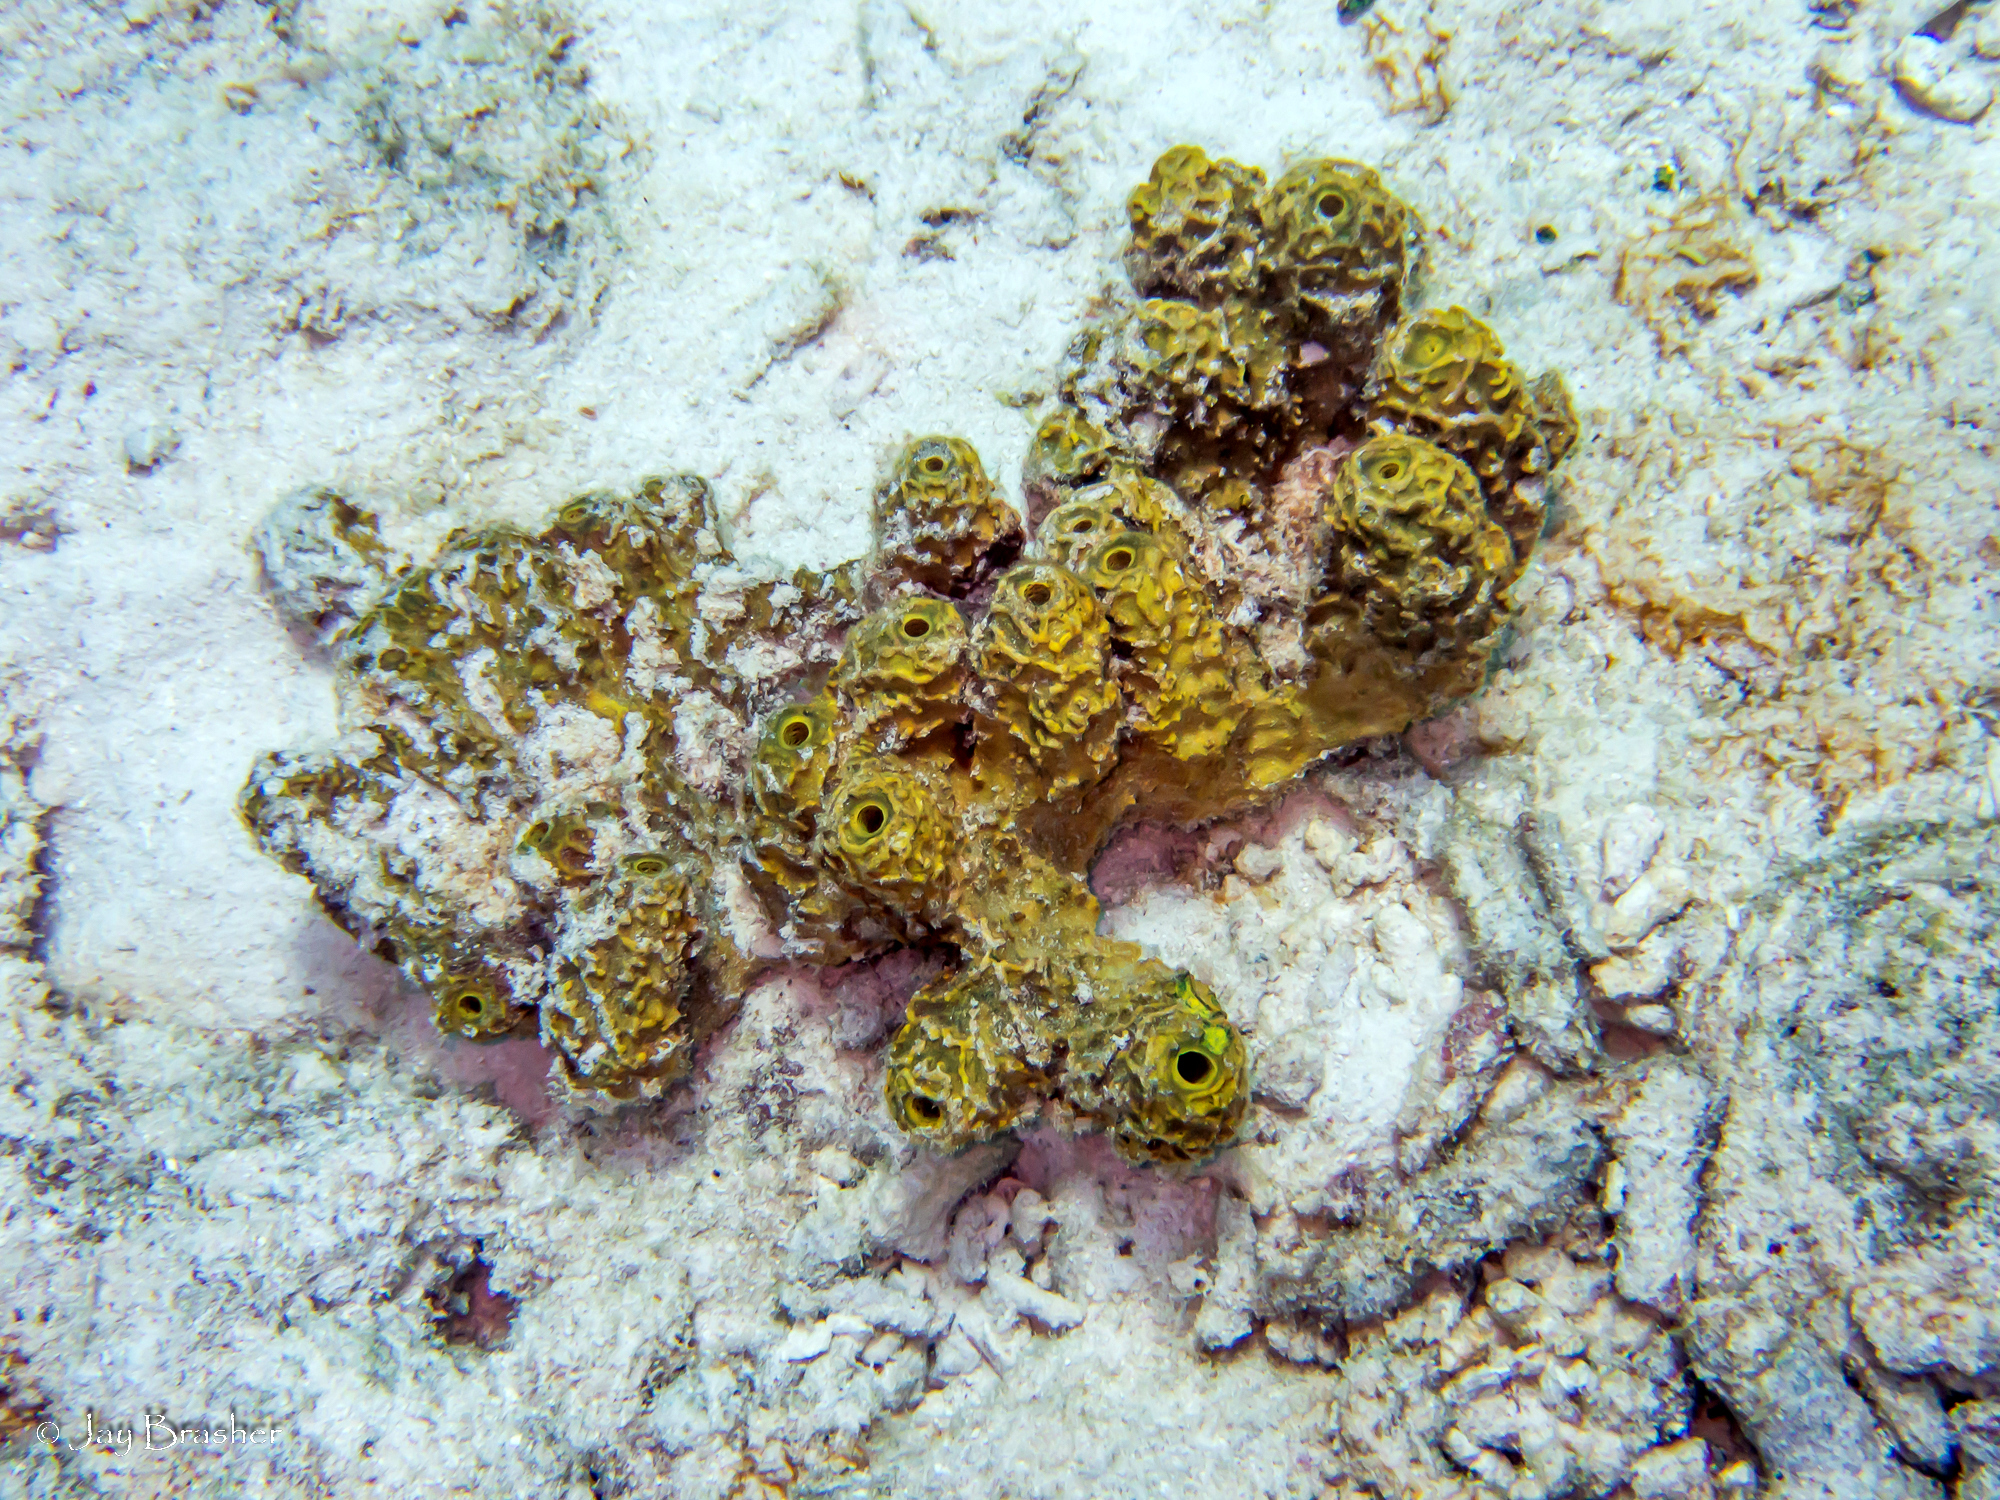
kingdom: Animalia
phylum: Porifera
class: Demospongiae
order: Verongiida
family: Aplysinidae
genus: Verongula
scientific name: Verongula rigida
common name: Pitted sponge
